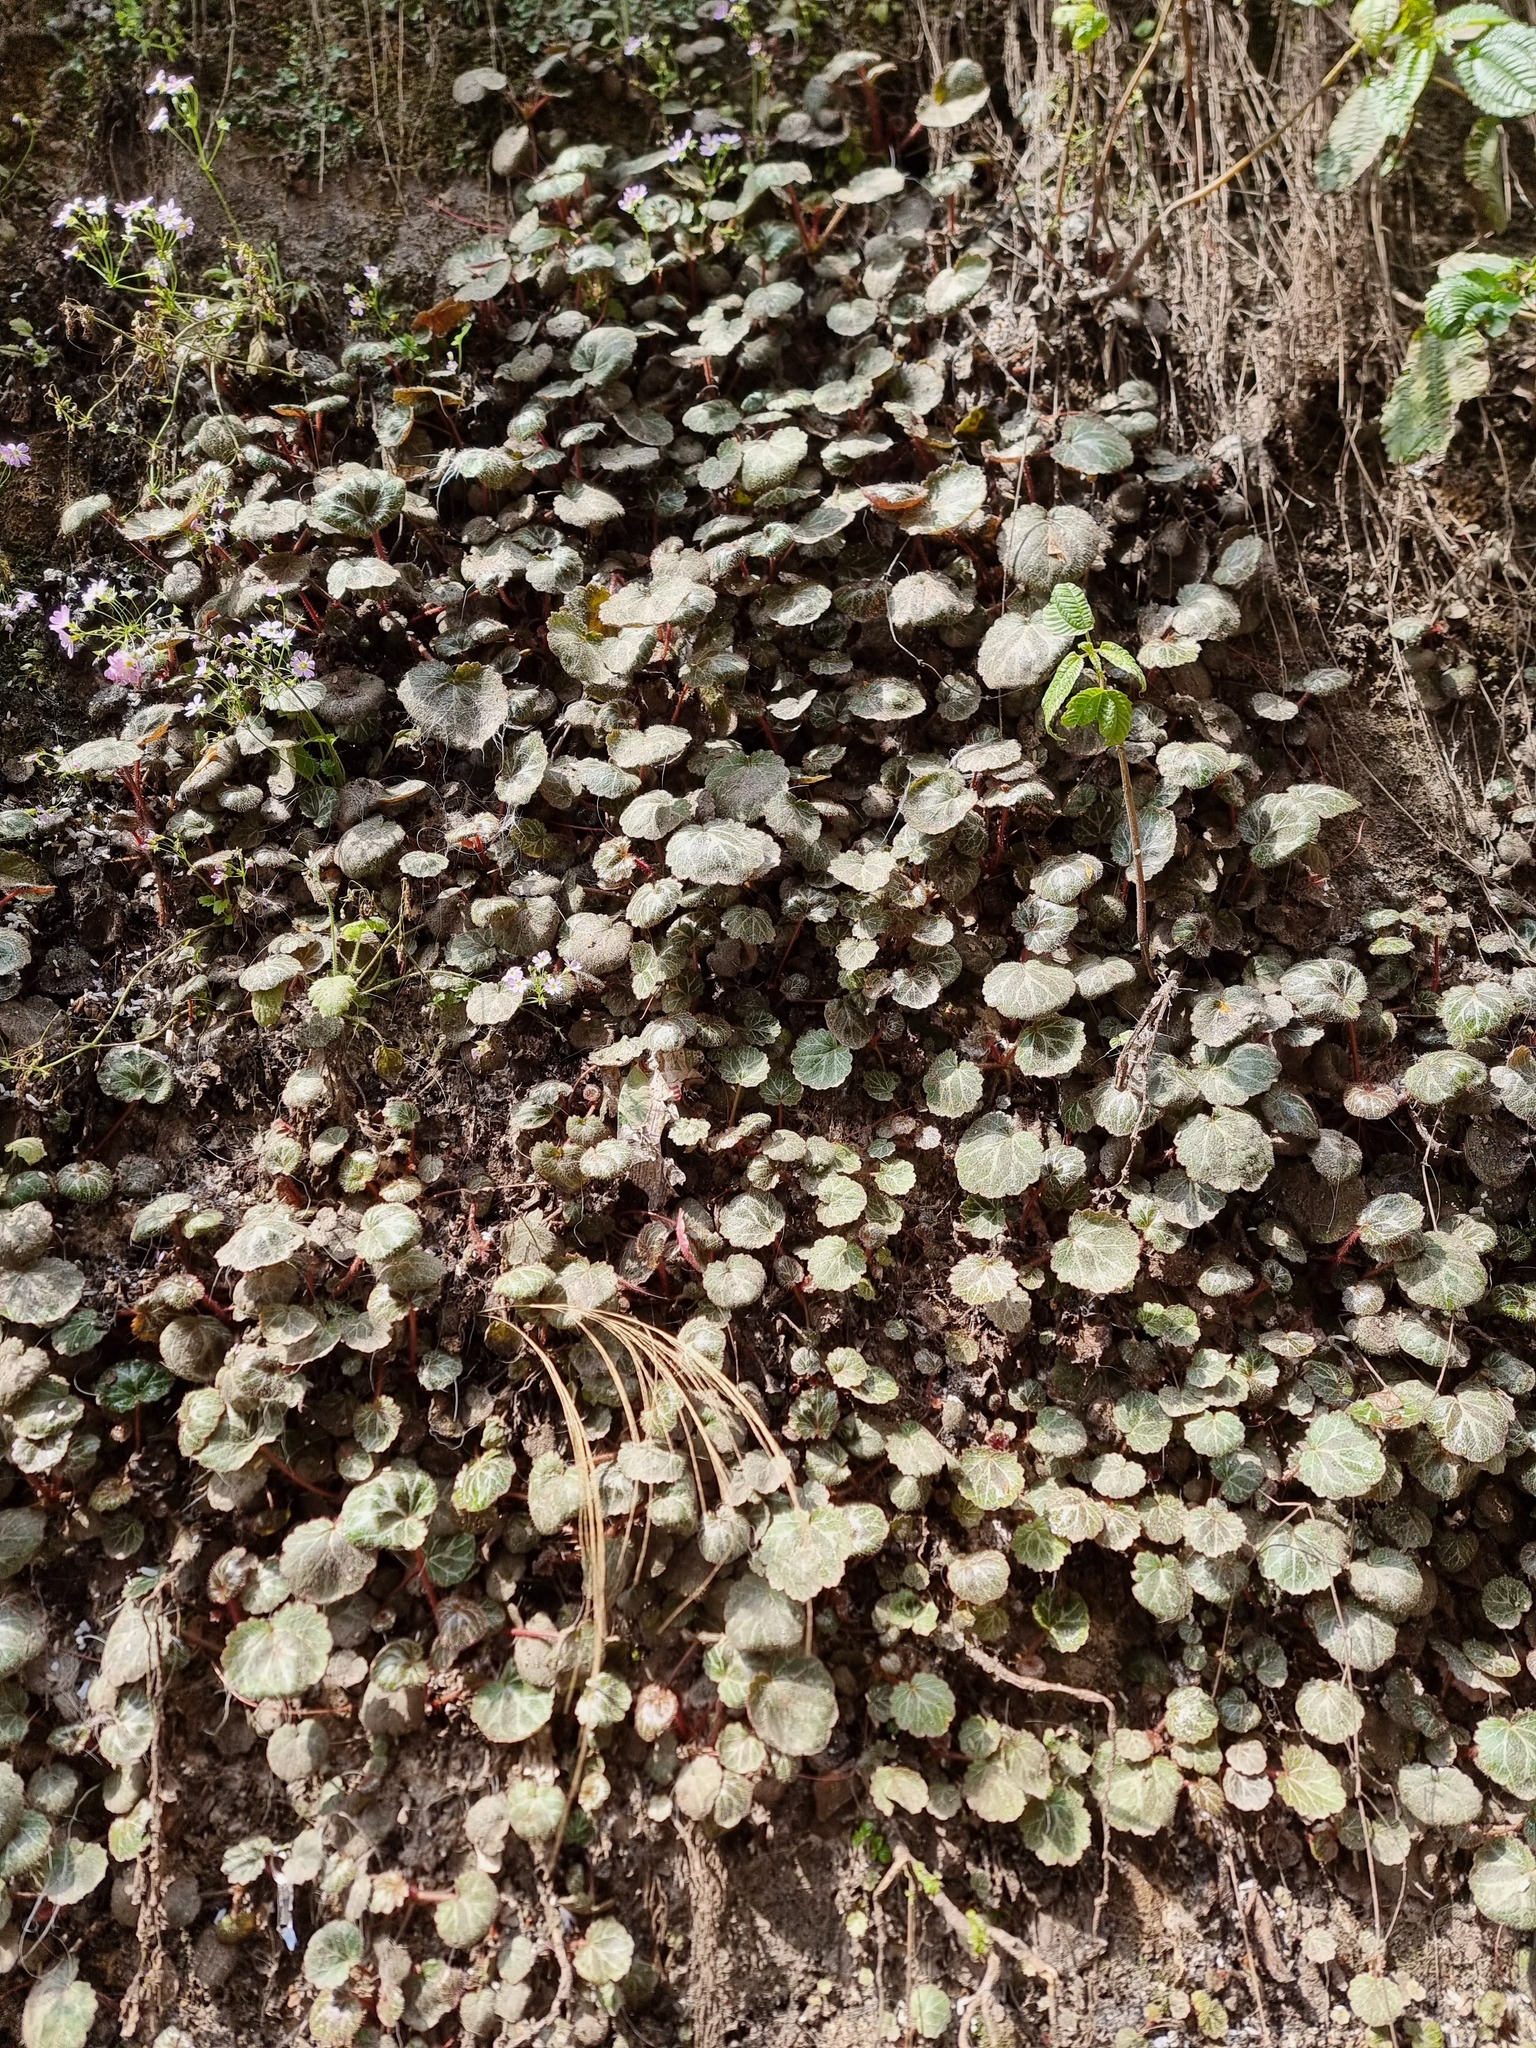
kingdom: Plantae
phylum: Tracheophyta
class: Magnoliopsida
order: Saxifragales
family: Saxifragaceae
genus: Saxifraga
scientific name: Saxifraga stolonifera
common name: Creeping saxifrage
